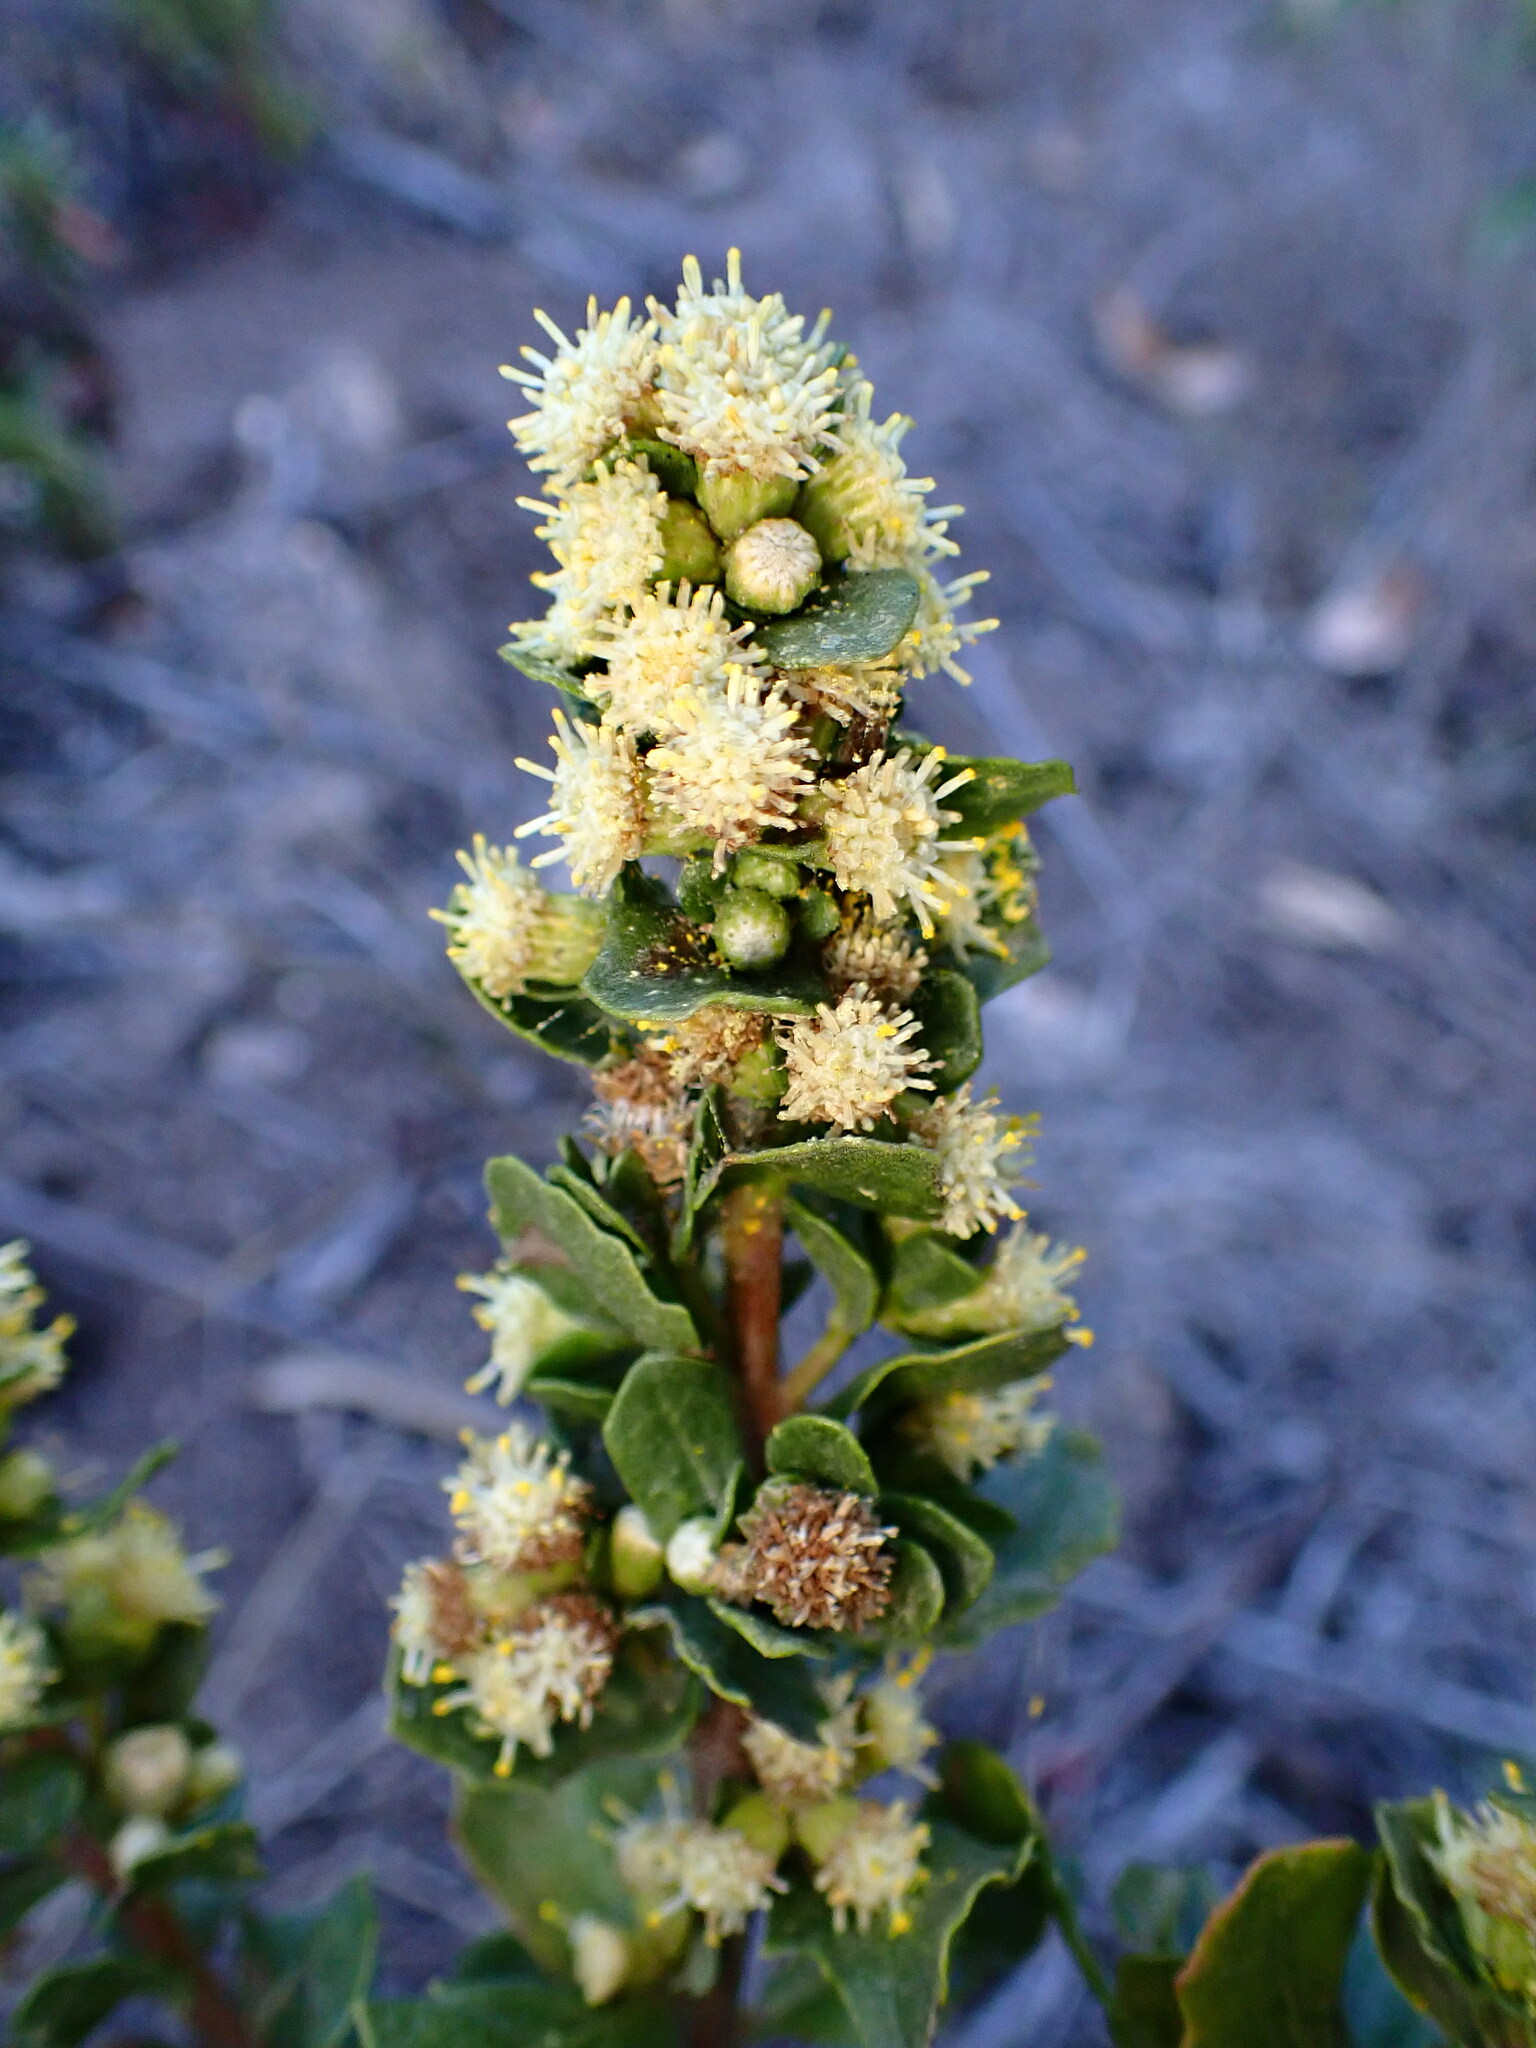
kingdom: Plantae
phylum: Tracheophyta
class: Magnoliopsida
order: Asterales
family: Asteraceae
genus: Baccharis
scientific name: Baccharis pilularis
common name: Coyotebrush
